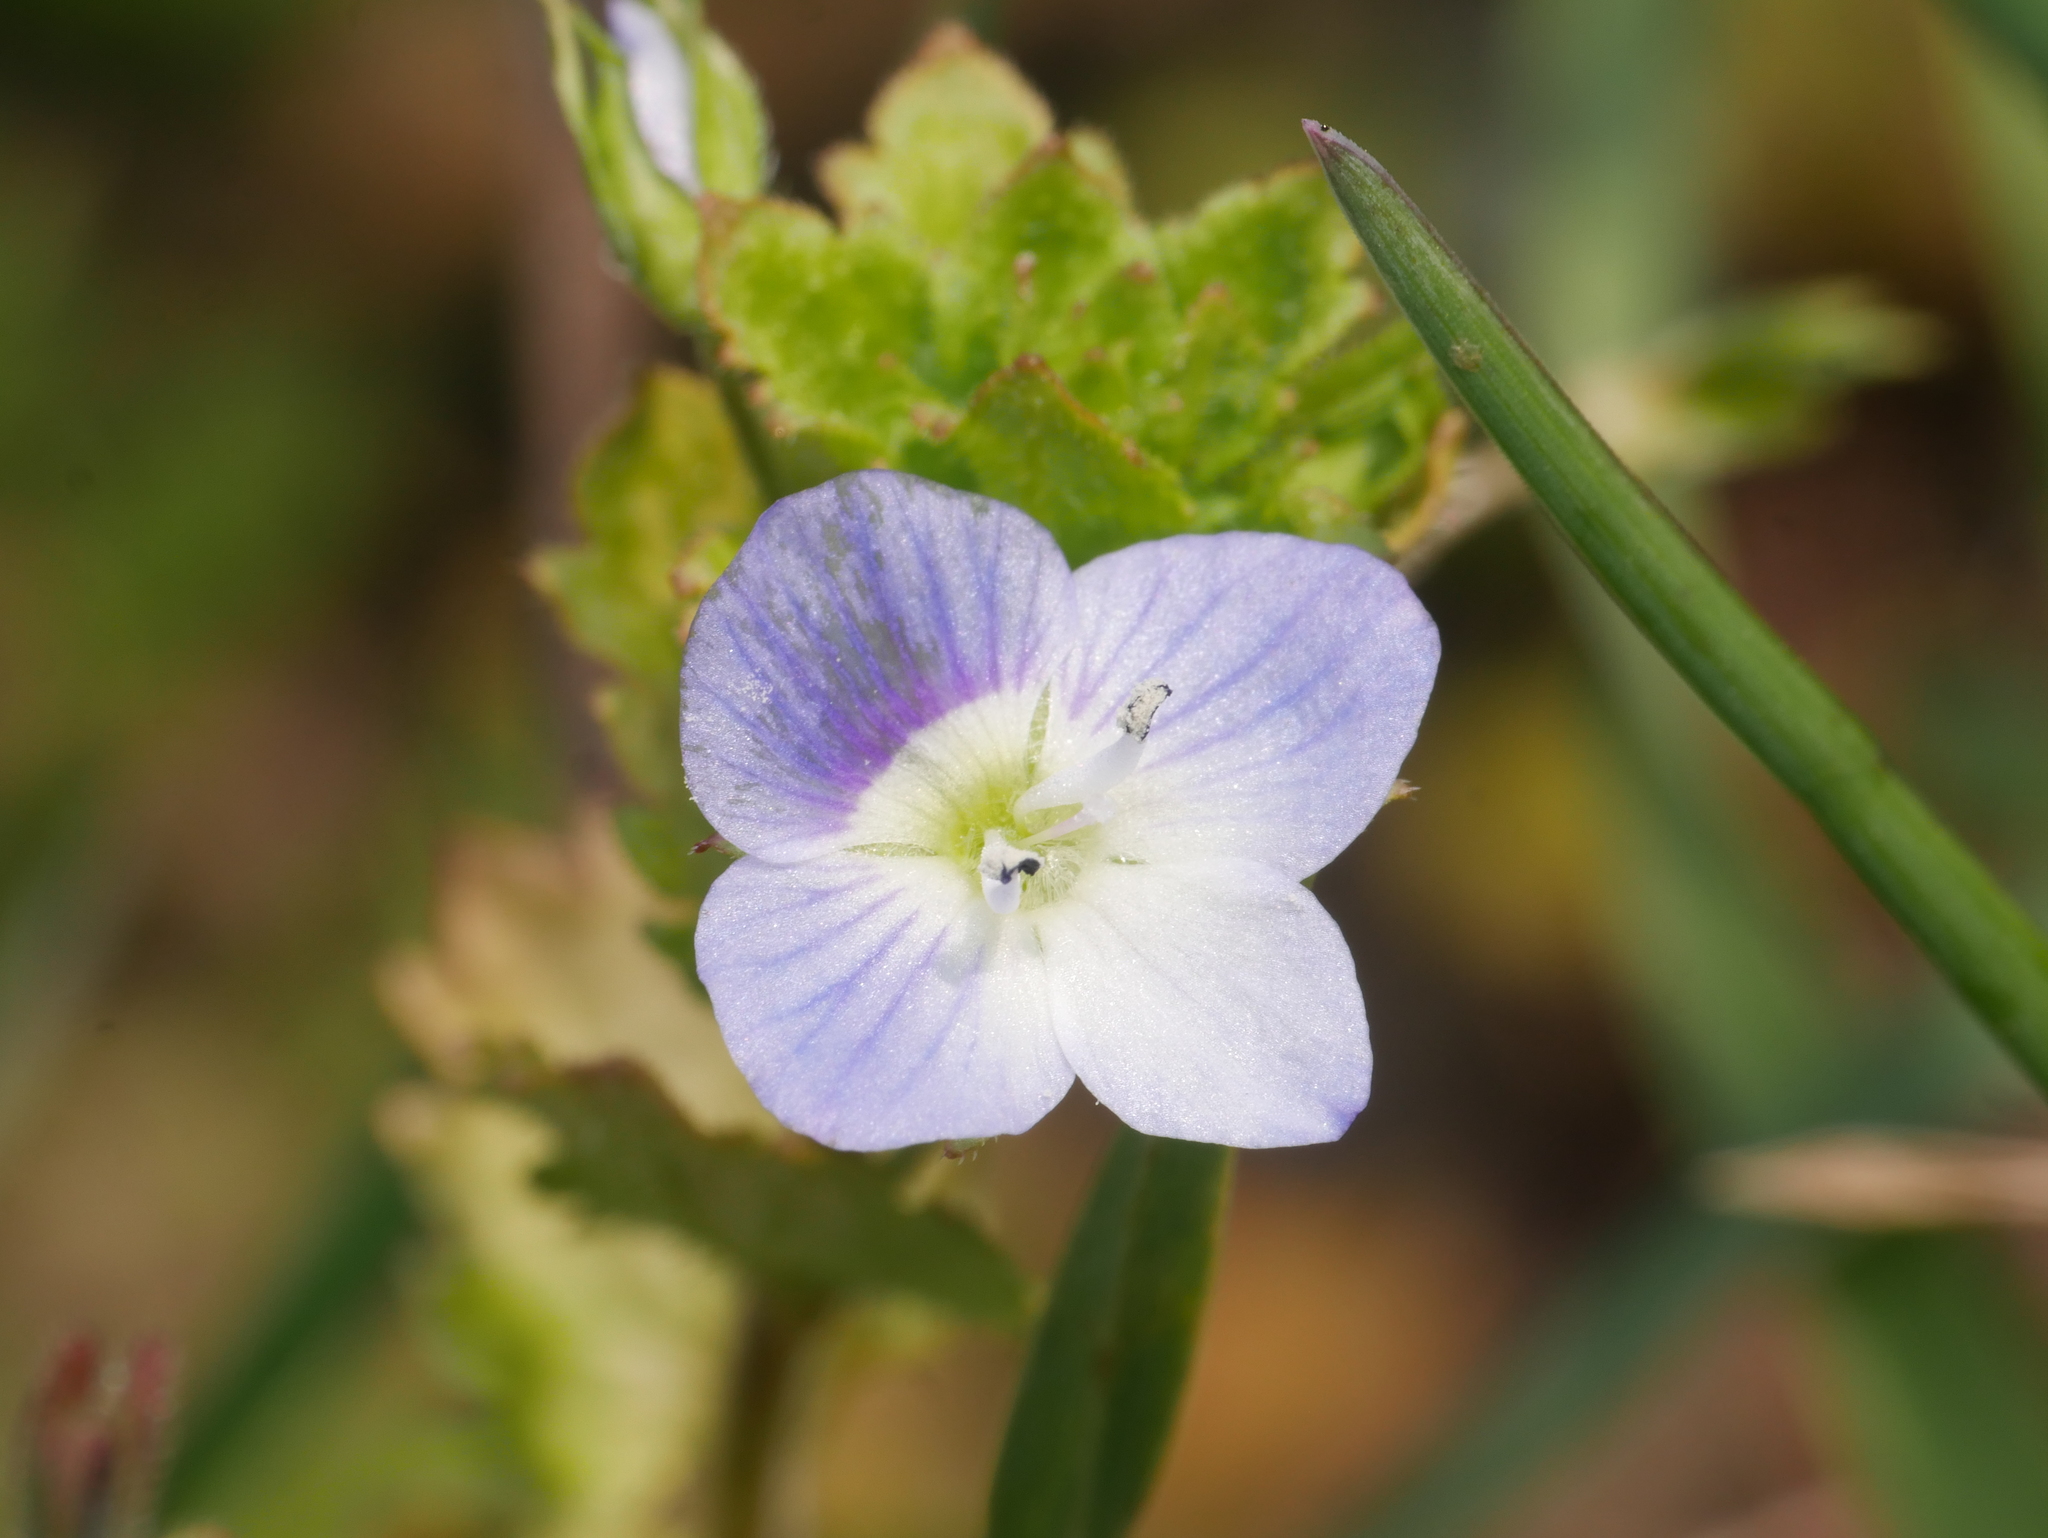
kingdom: Plantae
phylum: Tracheophyta
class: Magnoliopsida
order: Lamiales
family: Plantaginaceae
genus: Veronica
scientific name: Veronica persica
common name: Common field-speedwell
